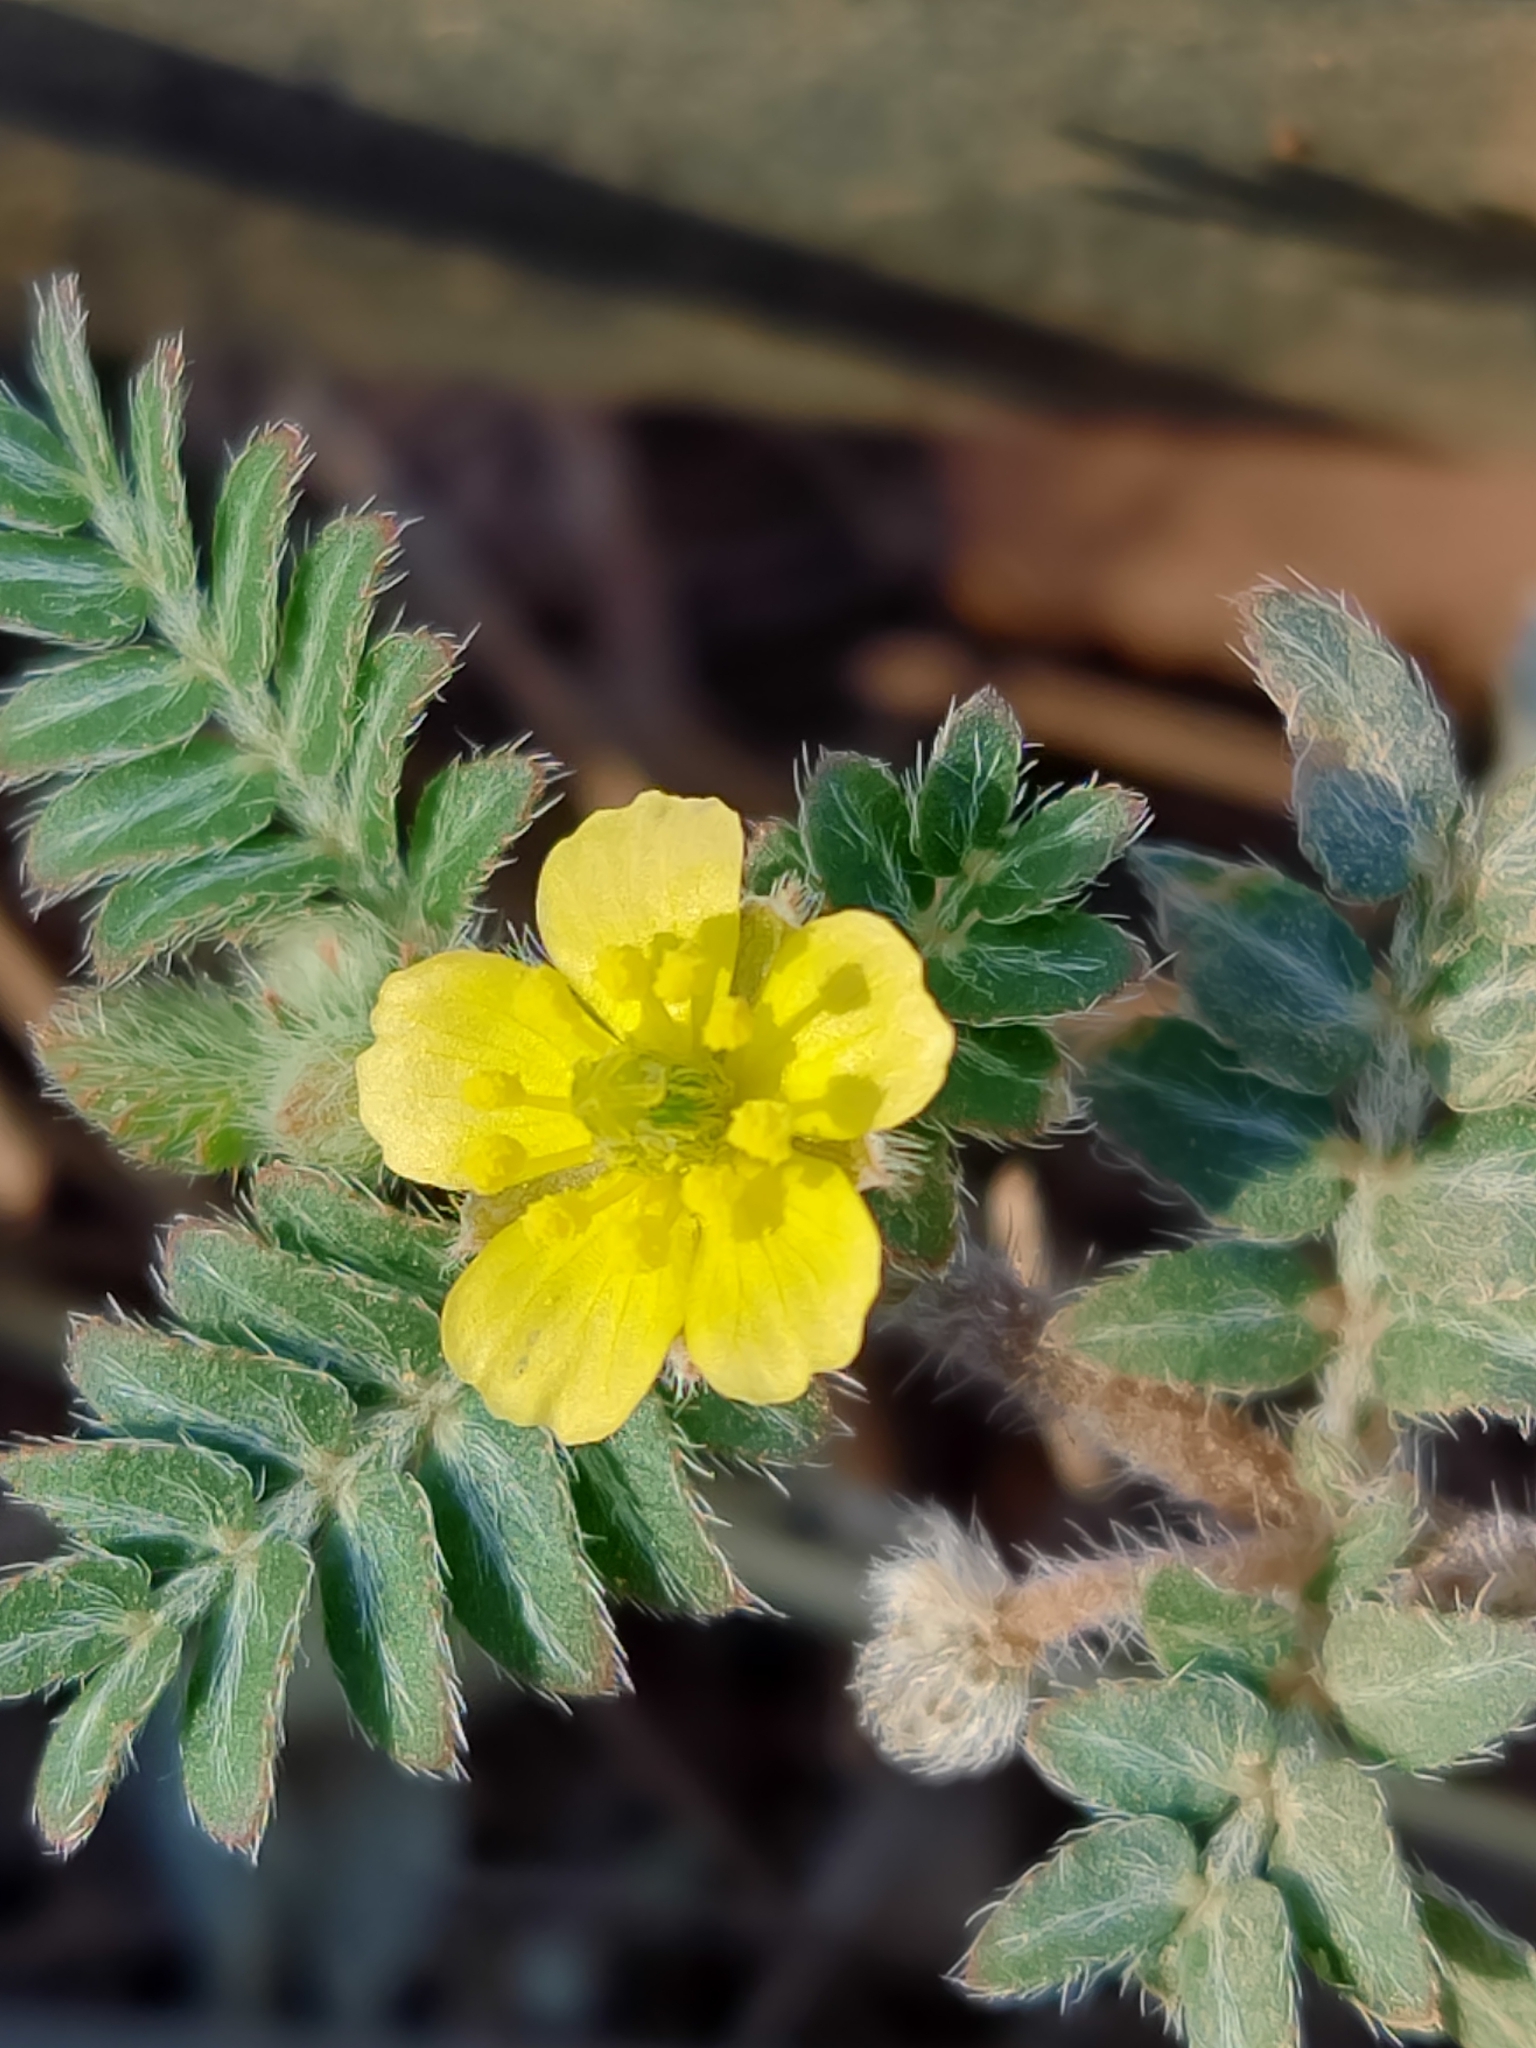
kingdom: Plantae
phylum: Tracheophyta
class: Magnoliopsida
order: Zygophyllales
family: Zygophyllaceae
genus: Tribulus
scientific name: Tribulus terrestris
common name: Puncturevine
